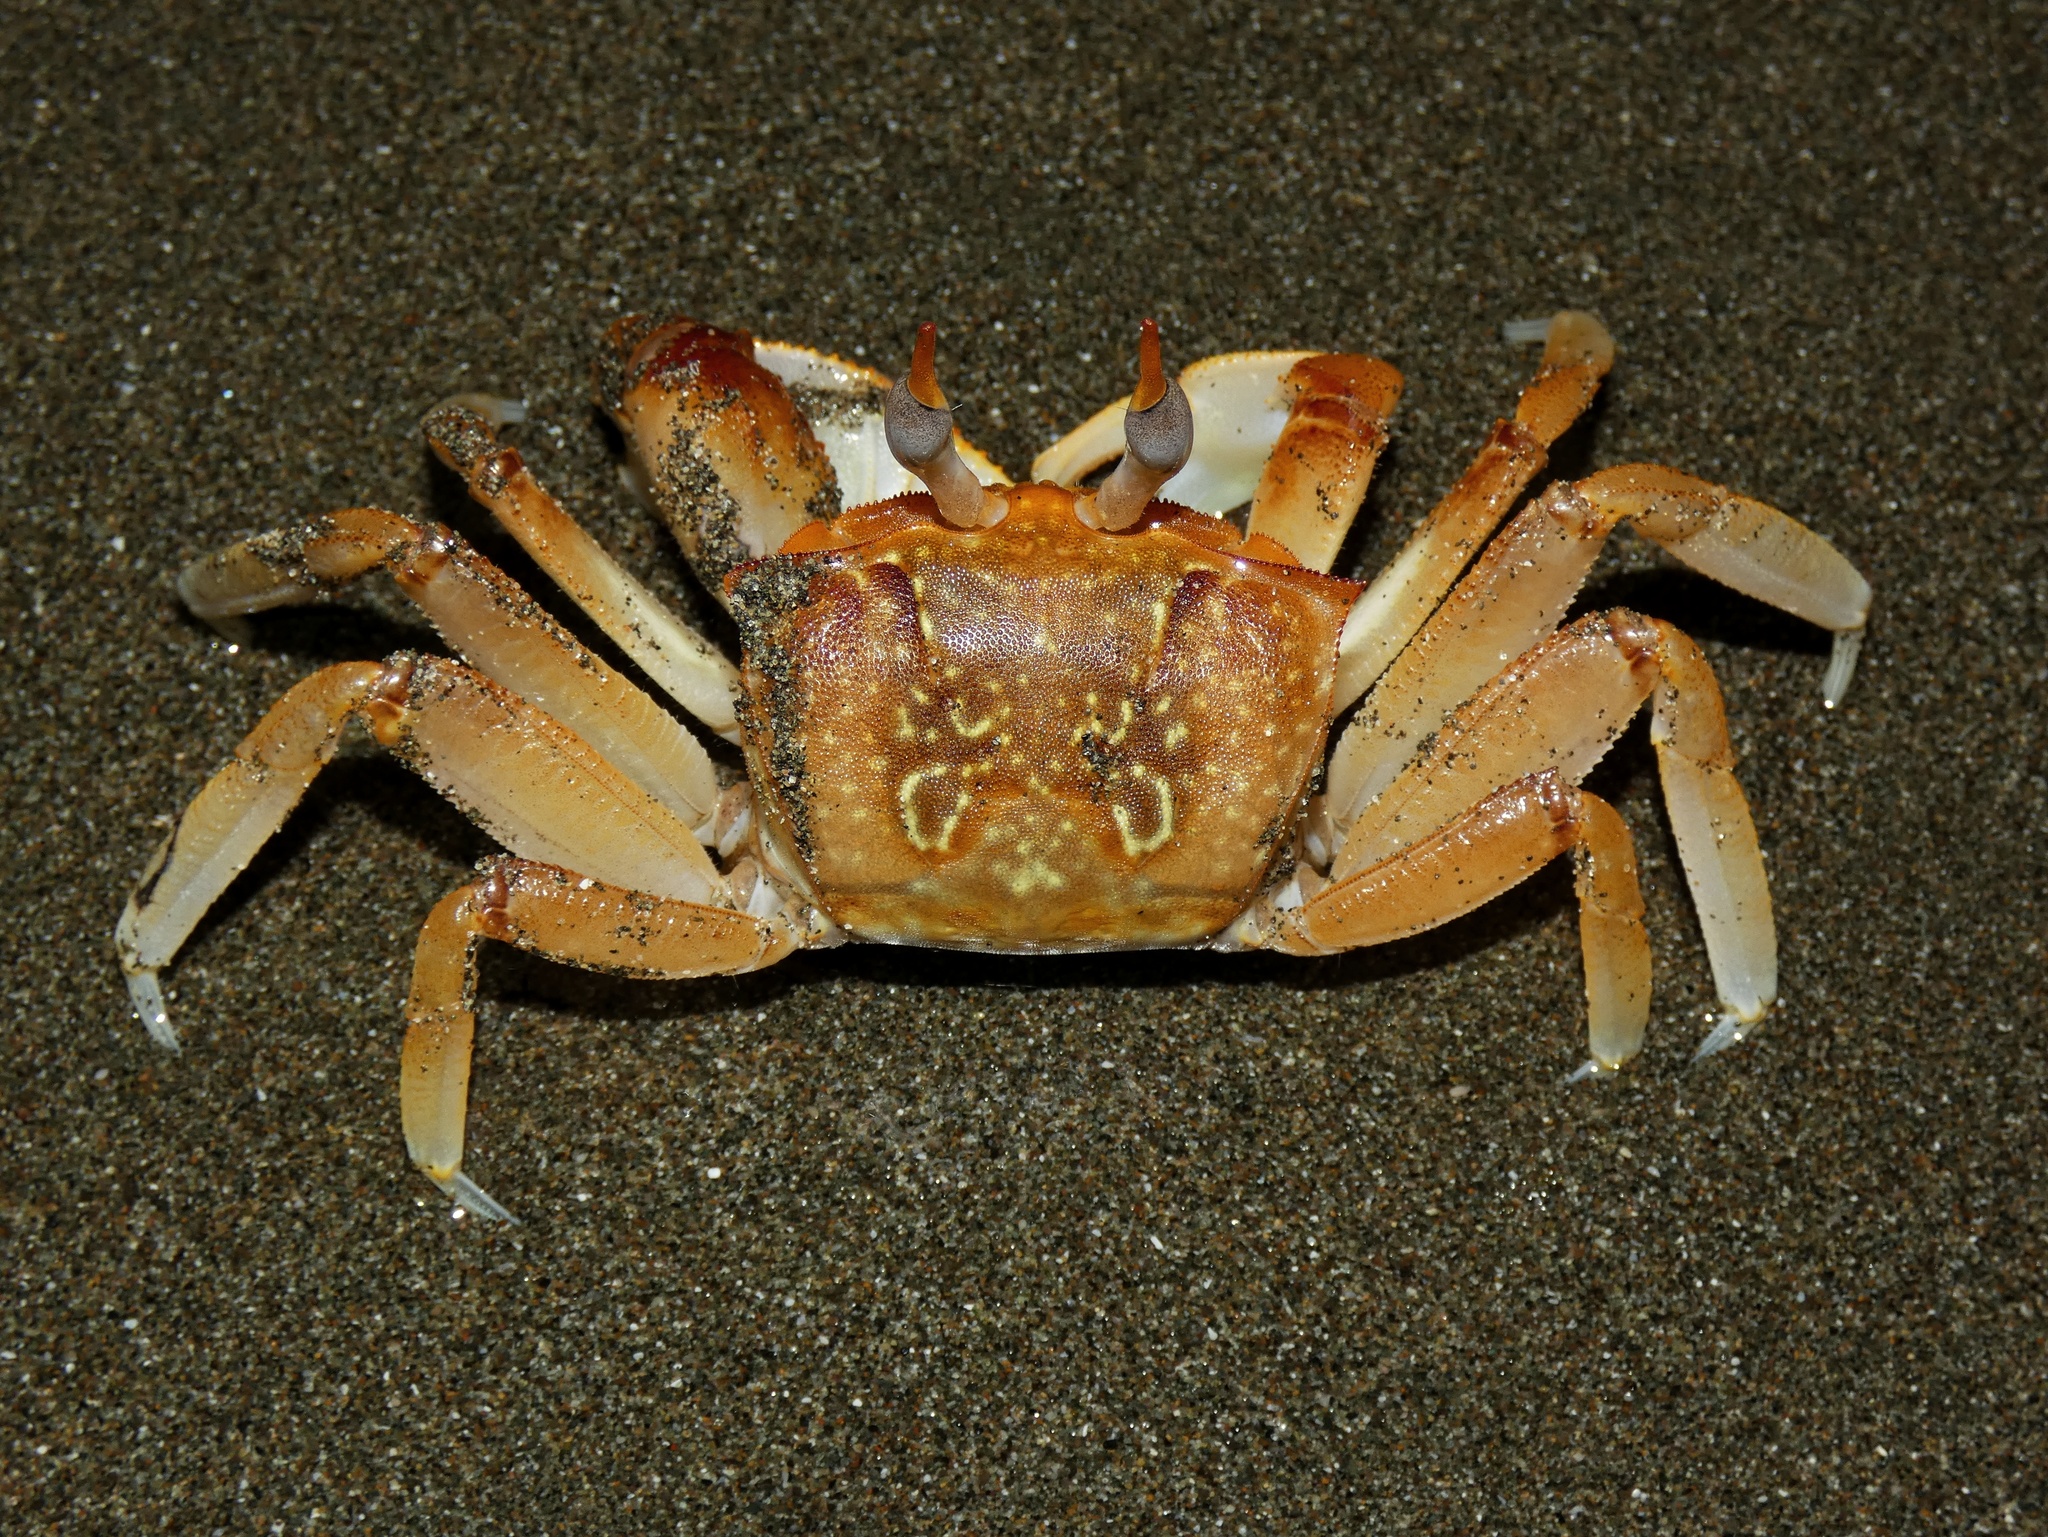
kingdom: Animalia
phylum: Arthropoda
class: Malacostraca
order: Decapoda
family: Ocypodidae
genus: Ocypode
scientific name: Ocypode gaudichaudii
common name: Pacific ghost crab
